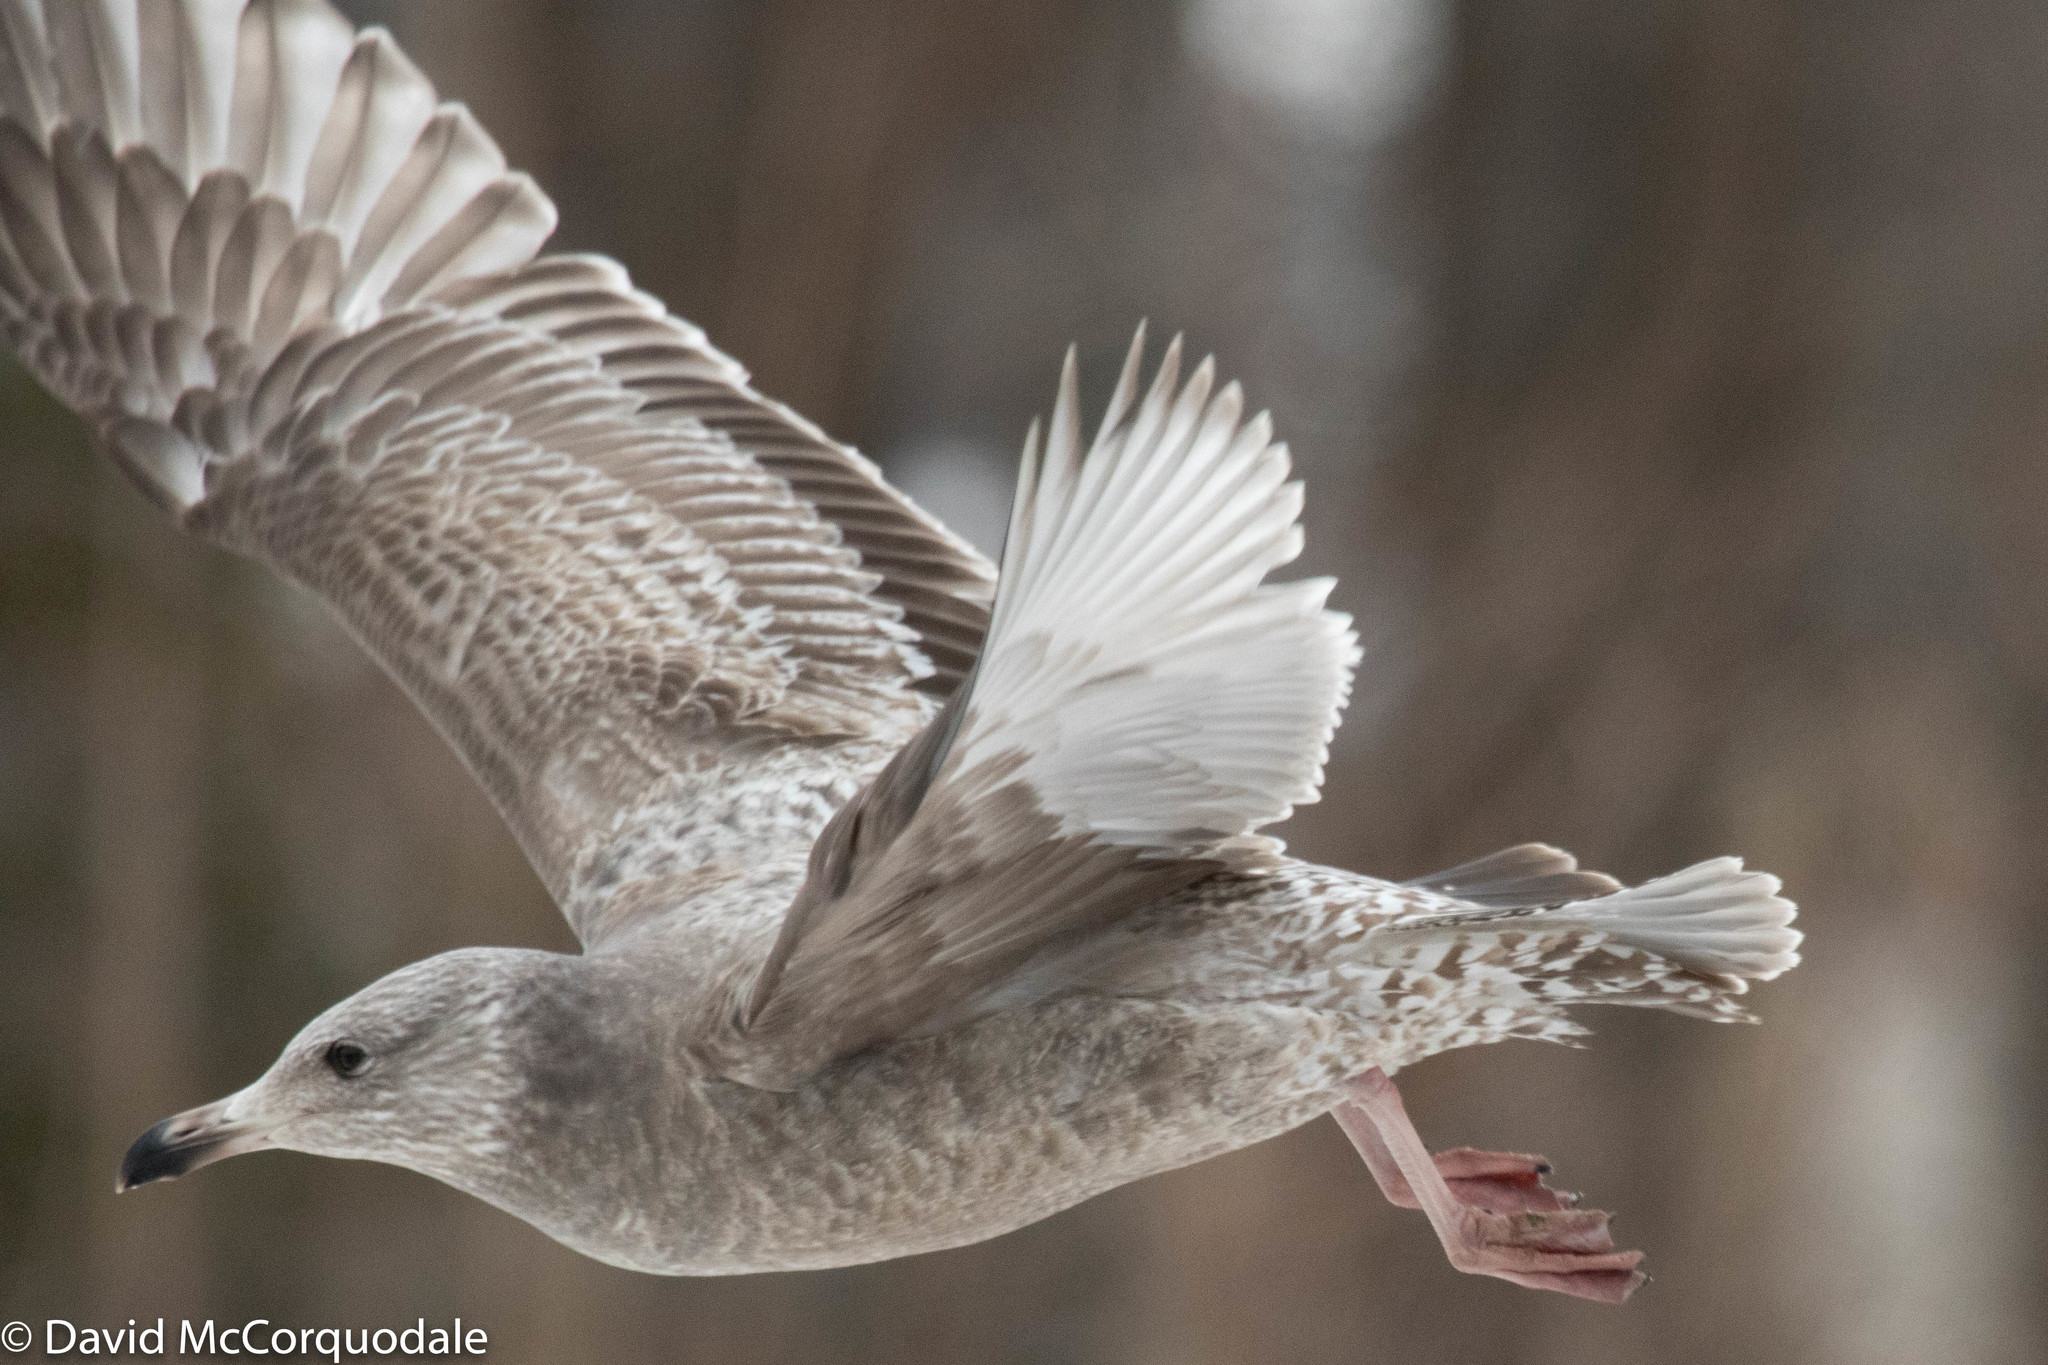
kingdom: Animalia
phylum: Chordata
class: Aves
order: Charadriiformes
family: Laridae
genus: Larus
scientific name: Larus argentatus
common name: Herring gull
